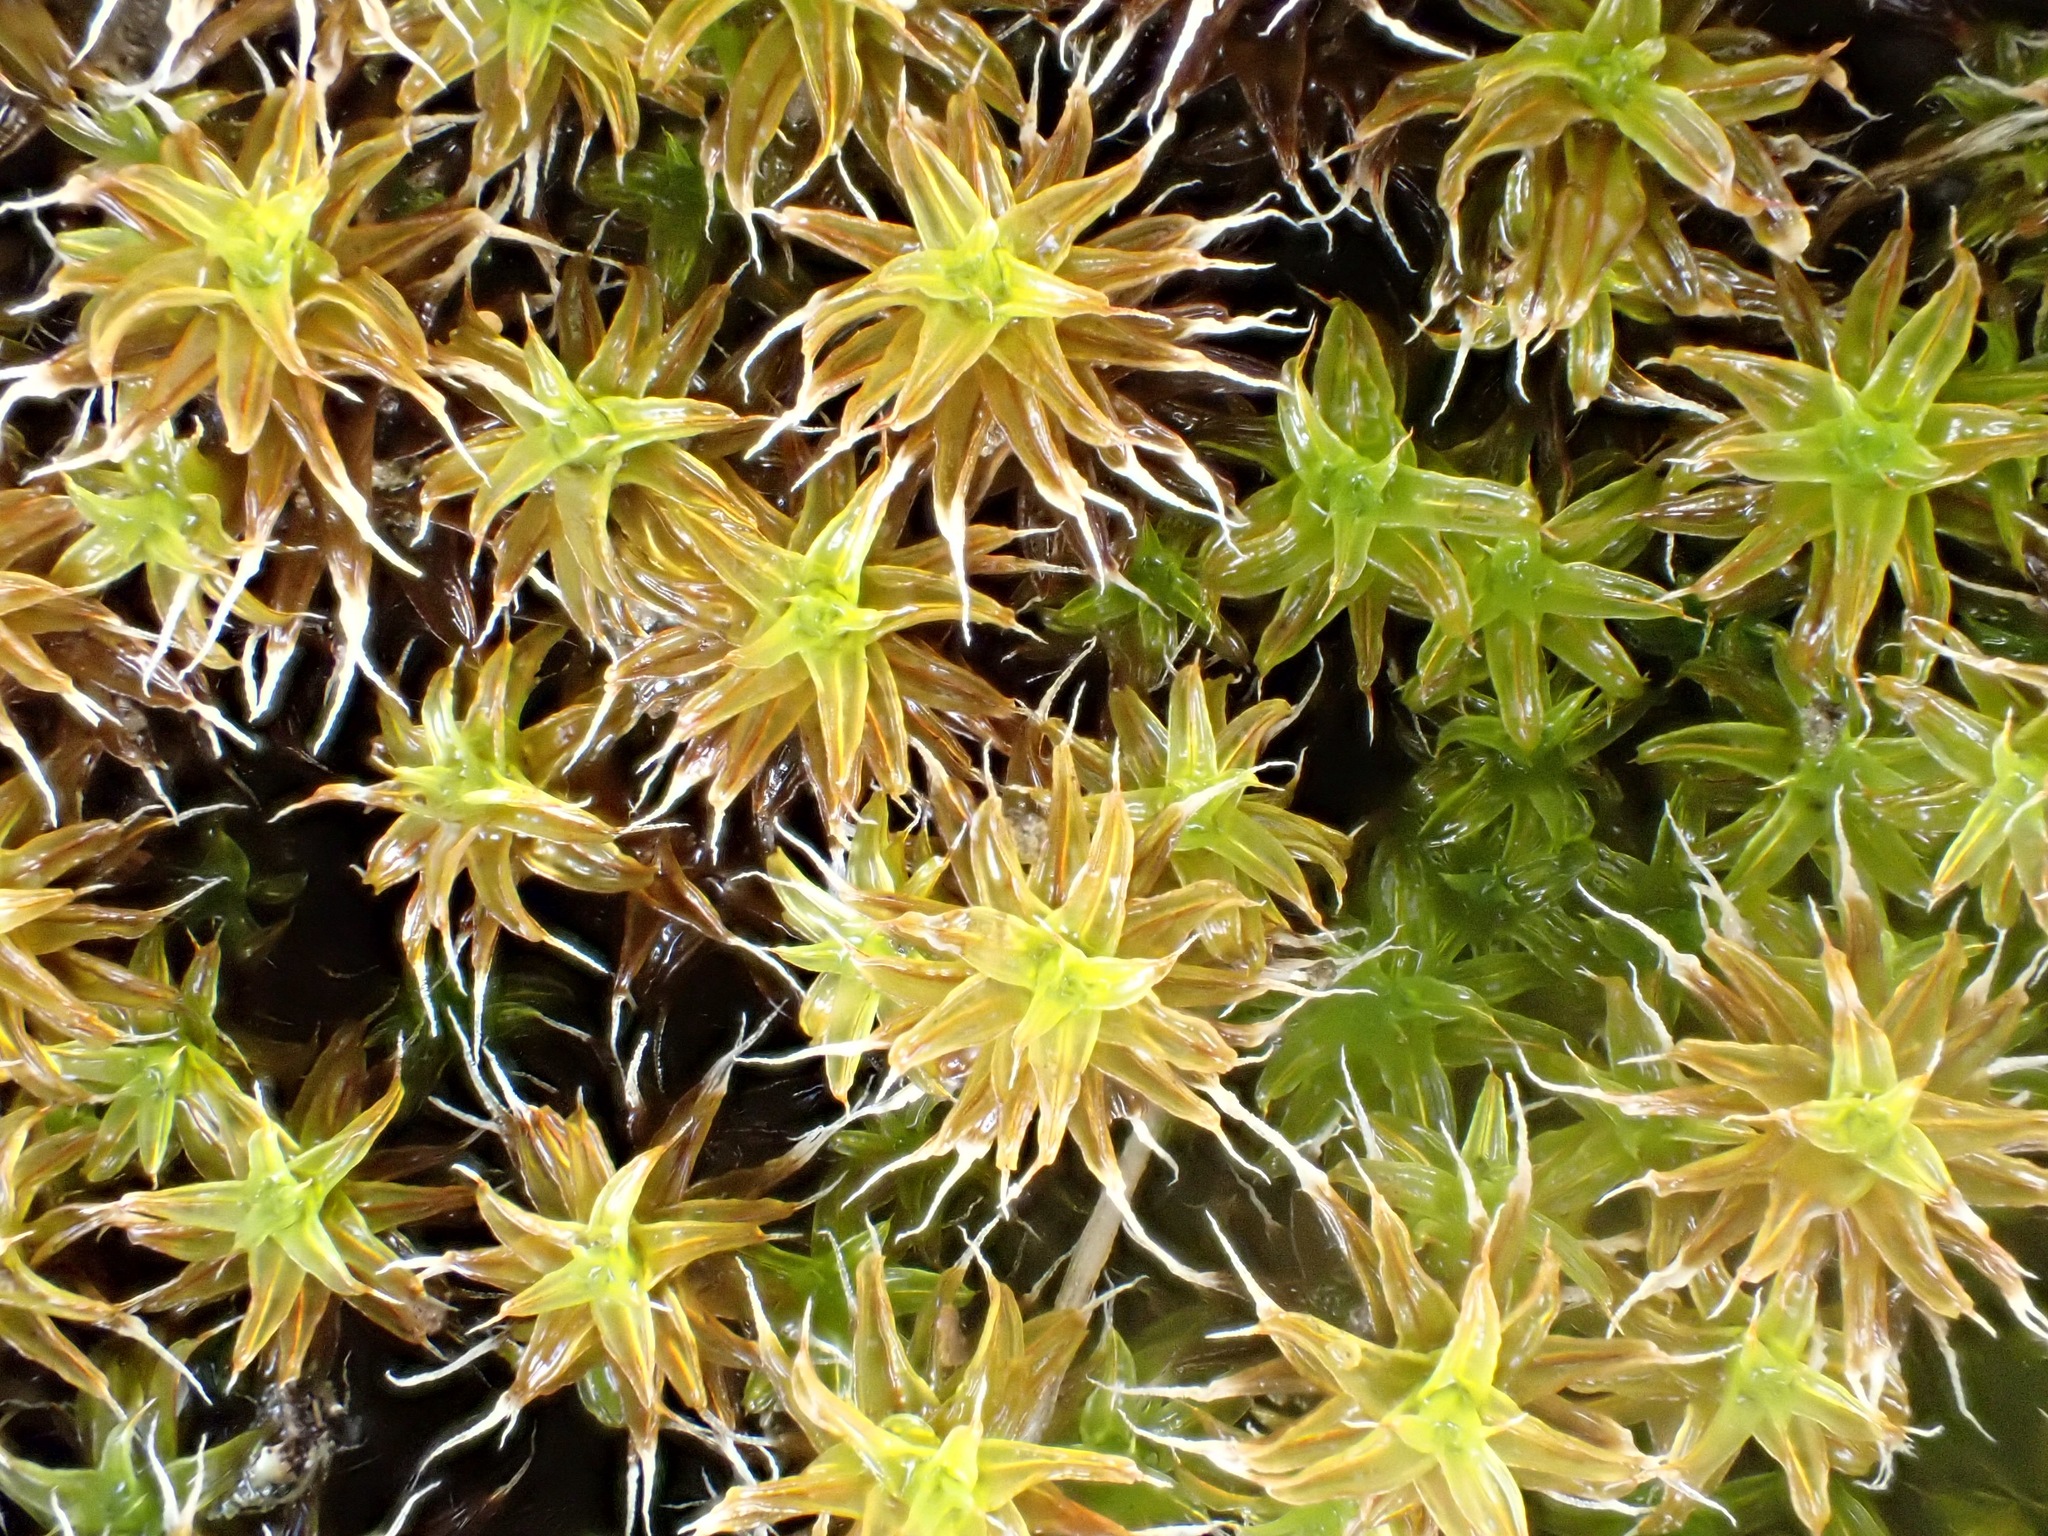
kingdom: Plantae
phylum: Bryophyta
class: Bryopsida
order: Pottiales
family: Pottiaceae
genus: Syntrichia
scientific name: Syntrichia ruralis
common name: Sidewalk screw moss
